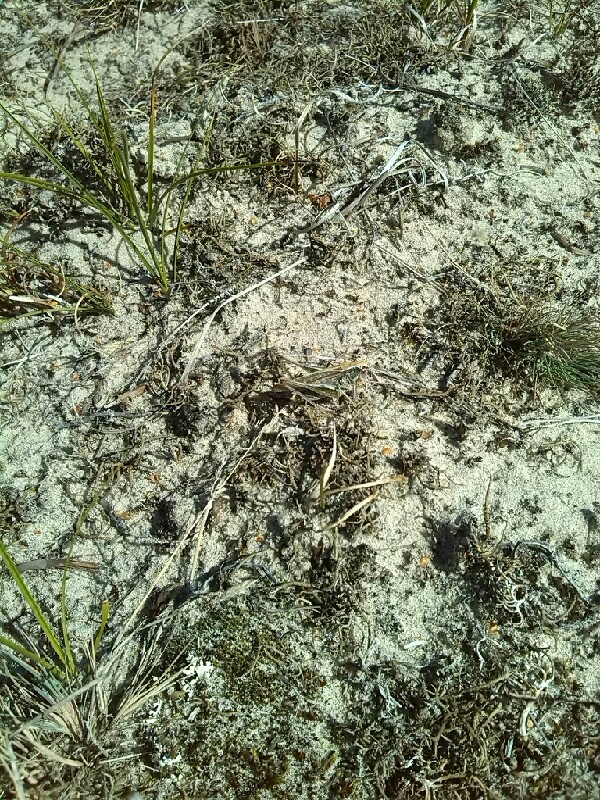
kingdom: Animalia
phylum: Arthropoda
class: Insecta
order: Orthoptera
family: Tettigoniidae
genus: Platycleis
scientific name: Platycleis albopunctata
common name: Grey bush-cricket
